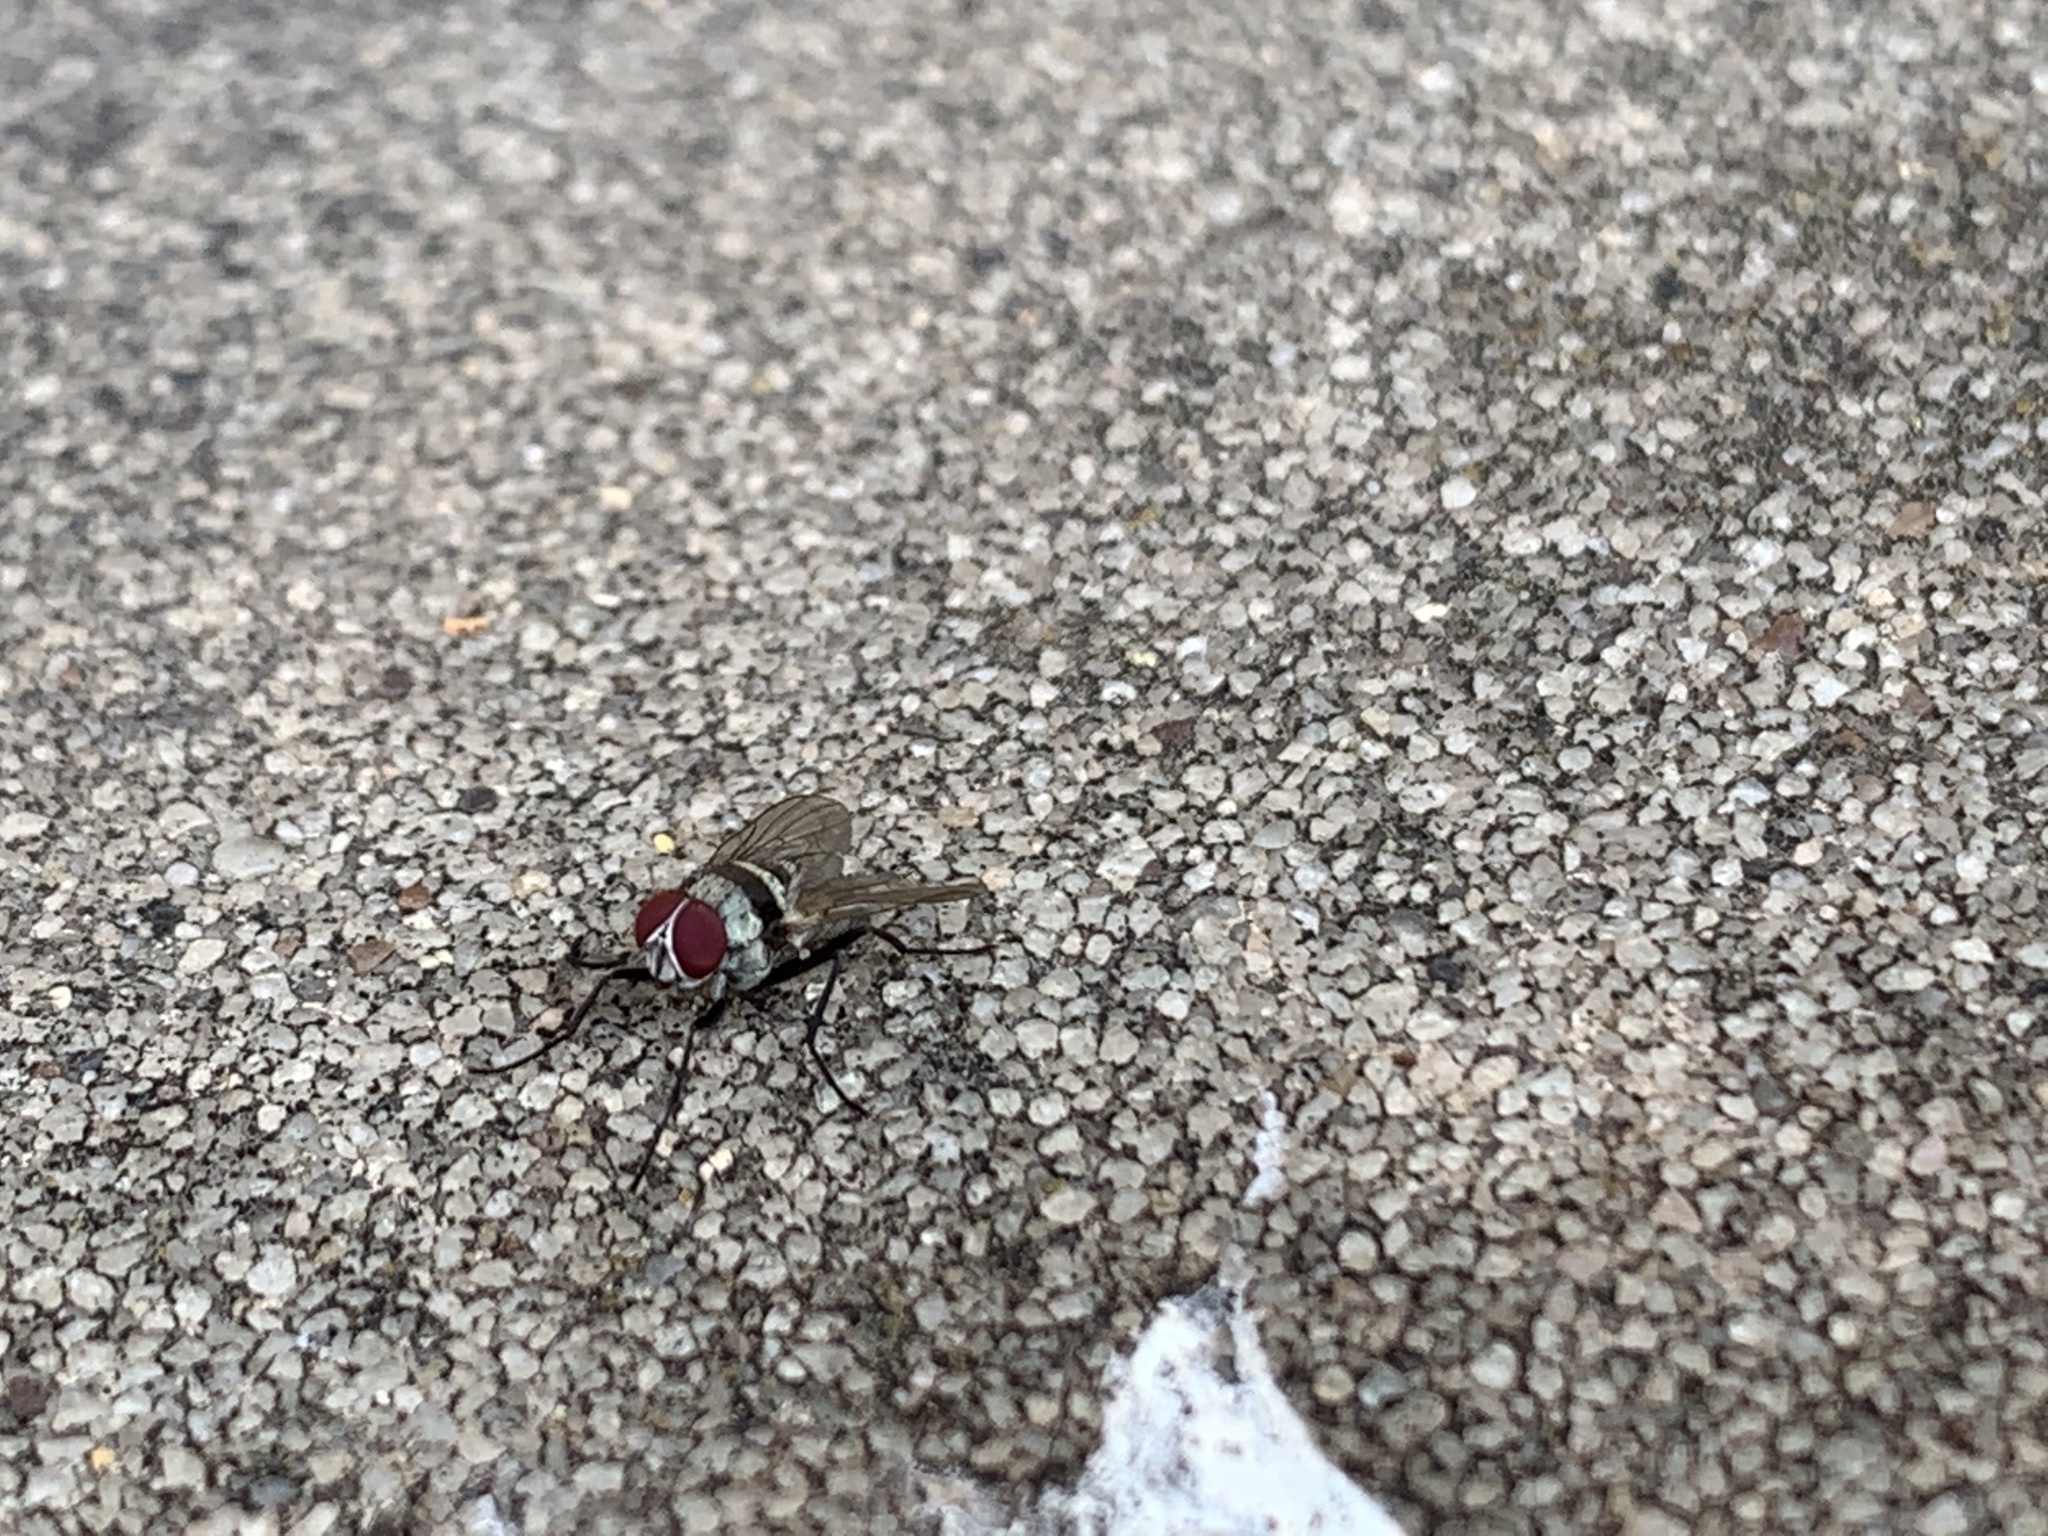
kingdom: Animalia
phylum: Arthropoda
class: Insecta
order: Diptera
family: Anthomyiidae
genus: Anthomyia
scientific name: Anthomyia illocata
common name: Fly
